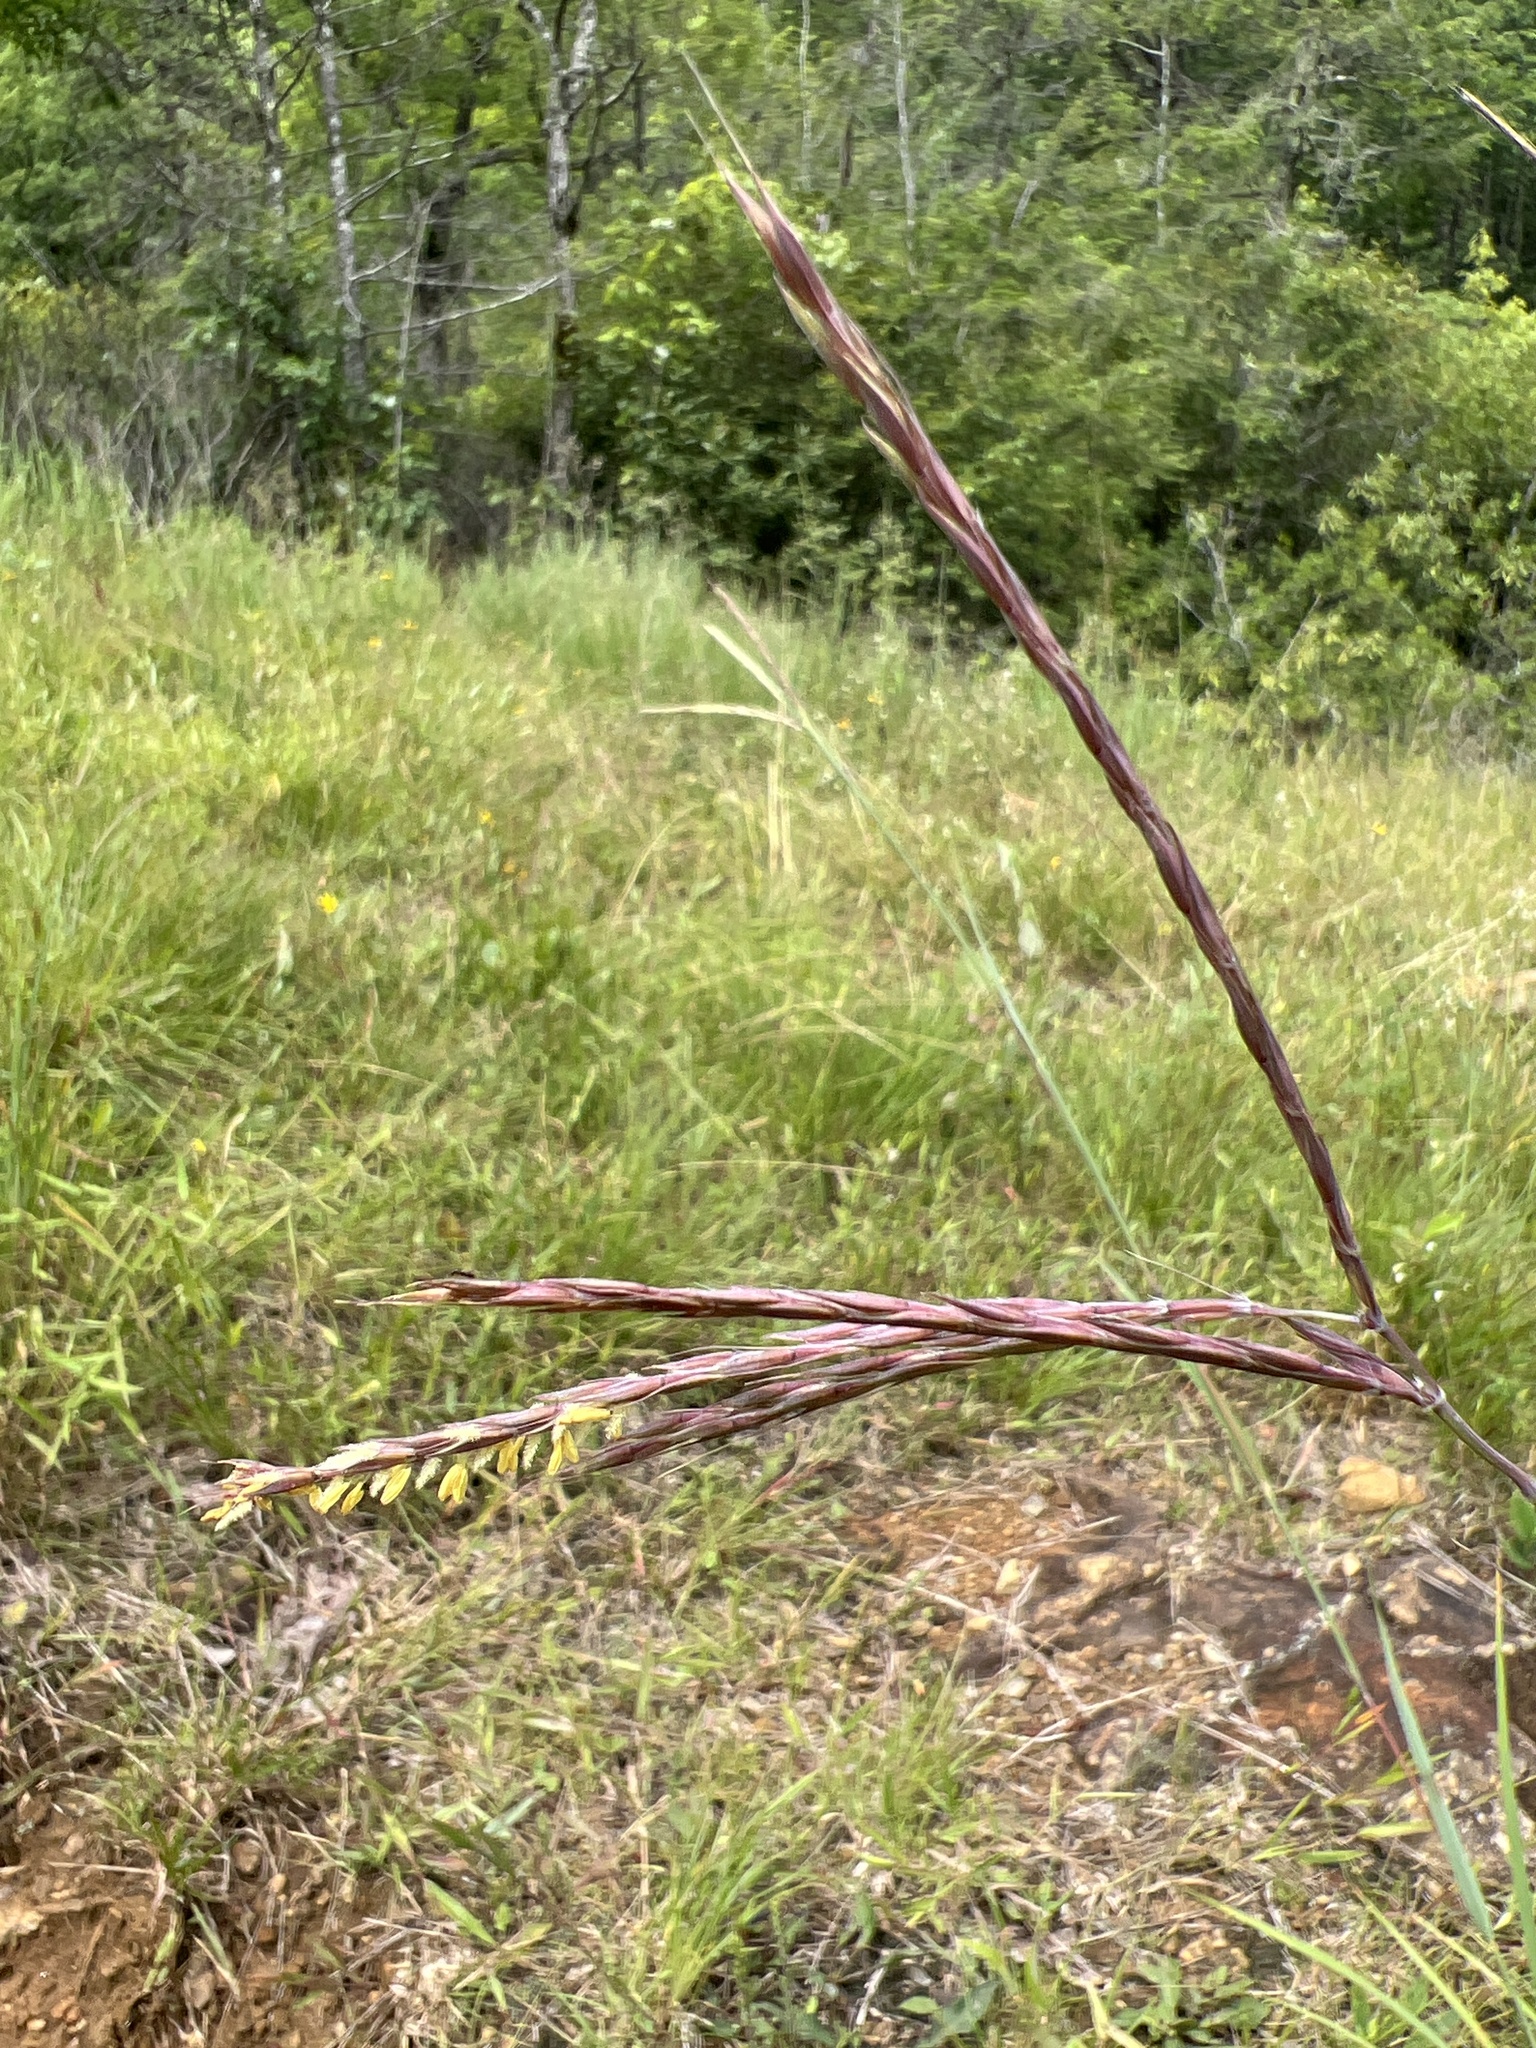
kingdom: Plantae
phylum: Tracheophyta
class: Liliopsida
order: Poales
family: Poaceae
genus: Andropogon
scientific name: Andropogon gerardi
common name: Big bluestem
